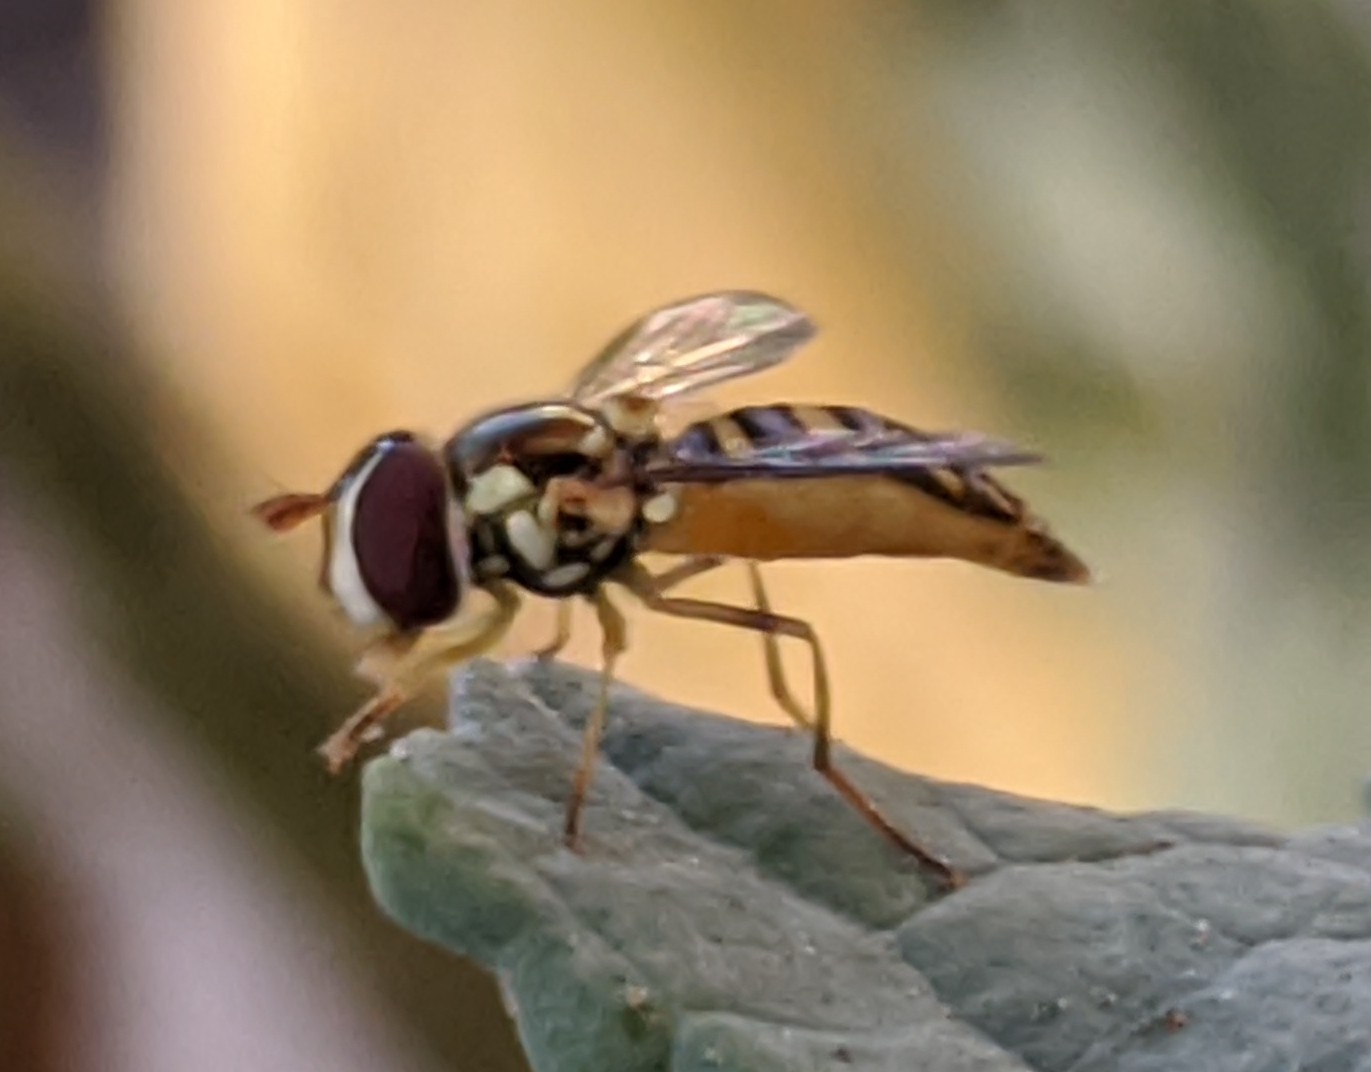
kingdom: Animalia
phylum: Arthropoda
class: Insecta
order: Diptera
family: Syrphidae
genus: Allograpta
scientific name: Allograpta obliqua
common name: Common oblique syrphid
